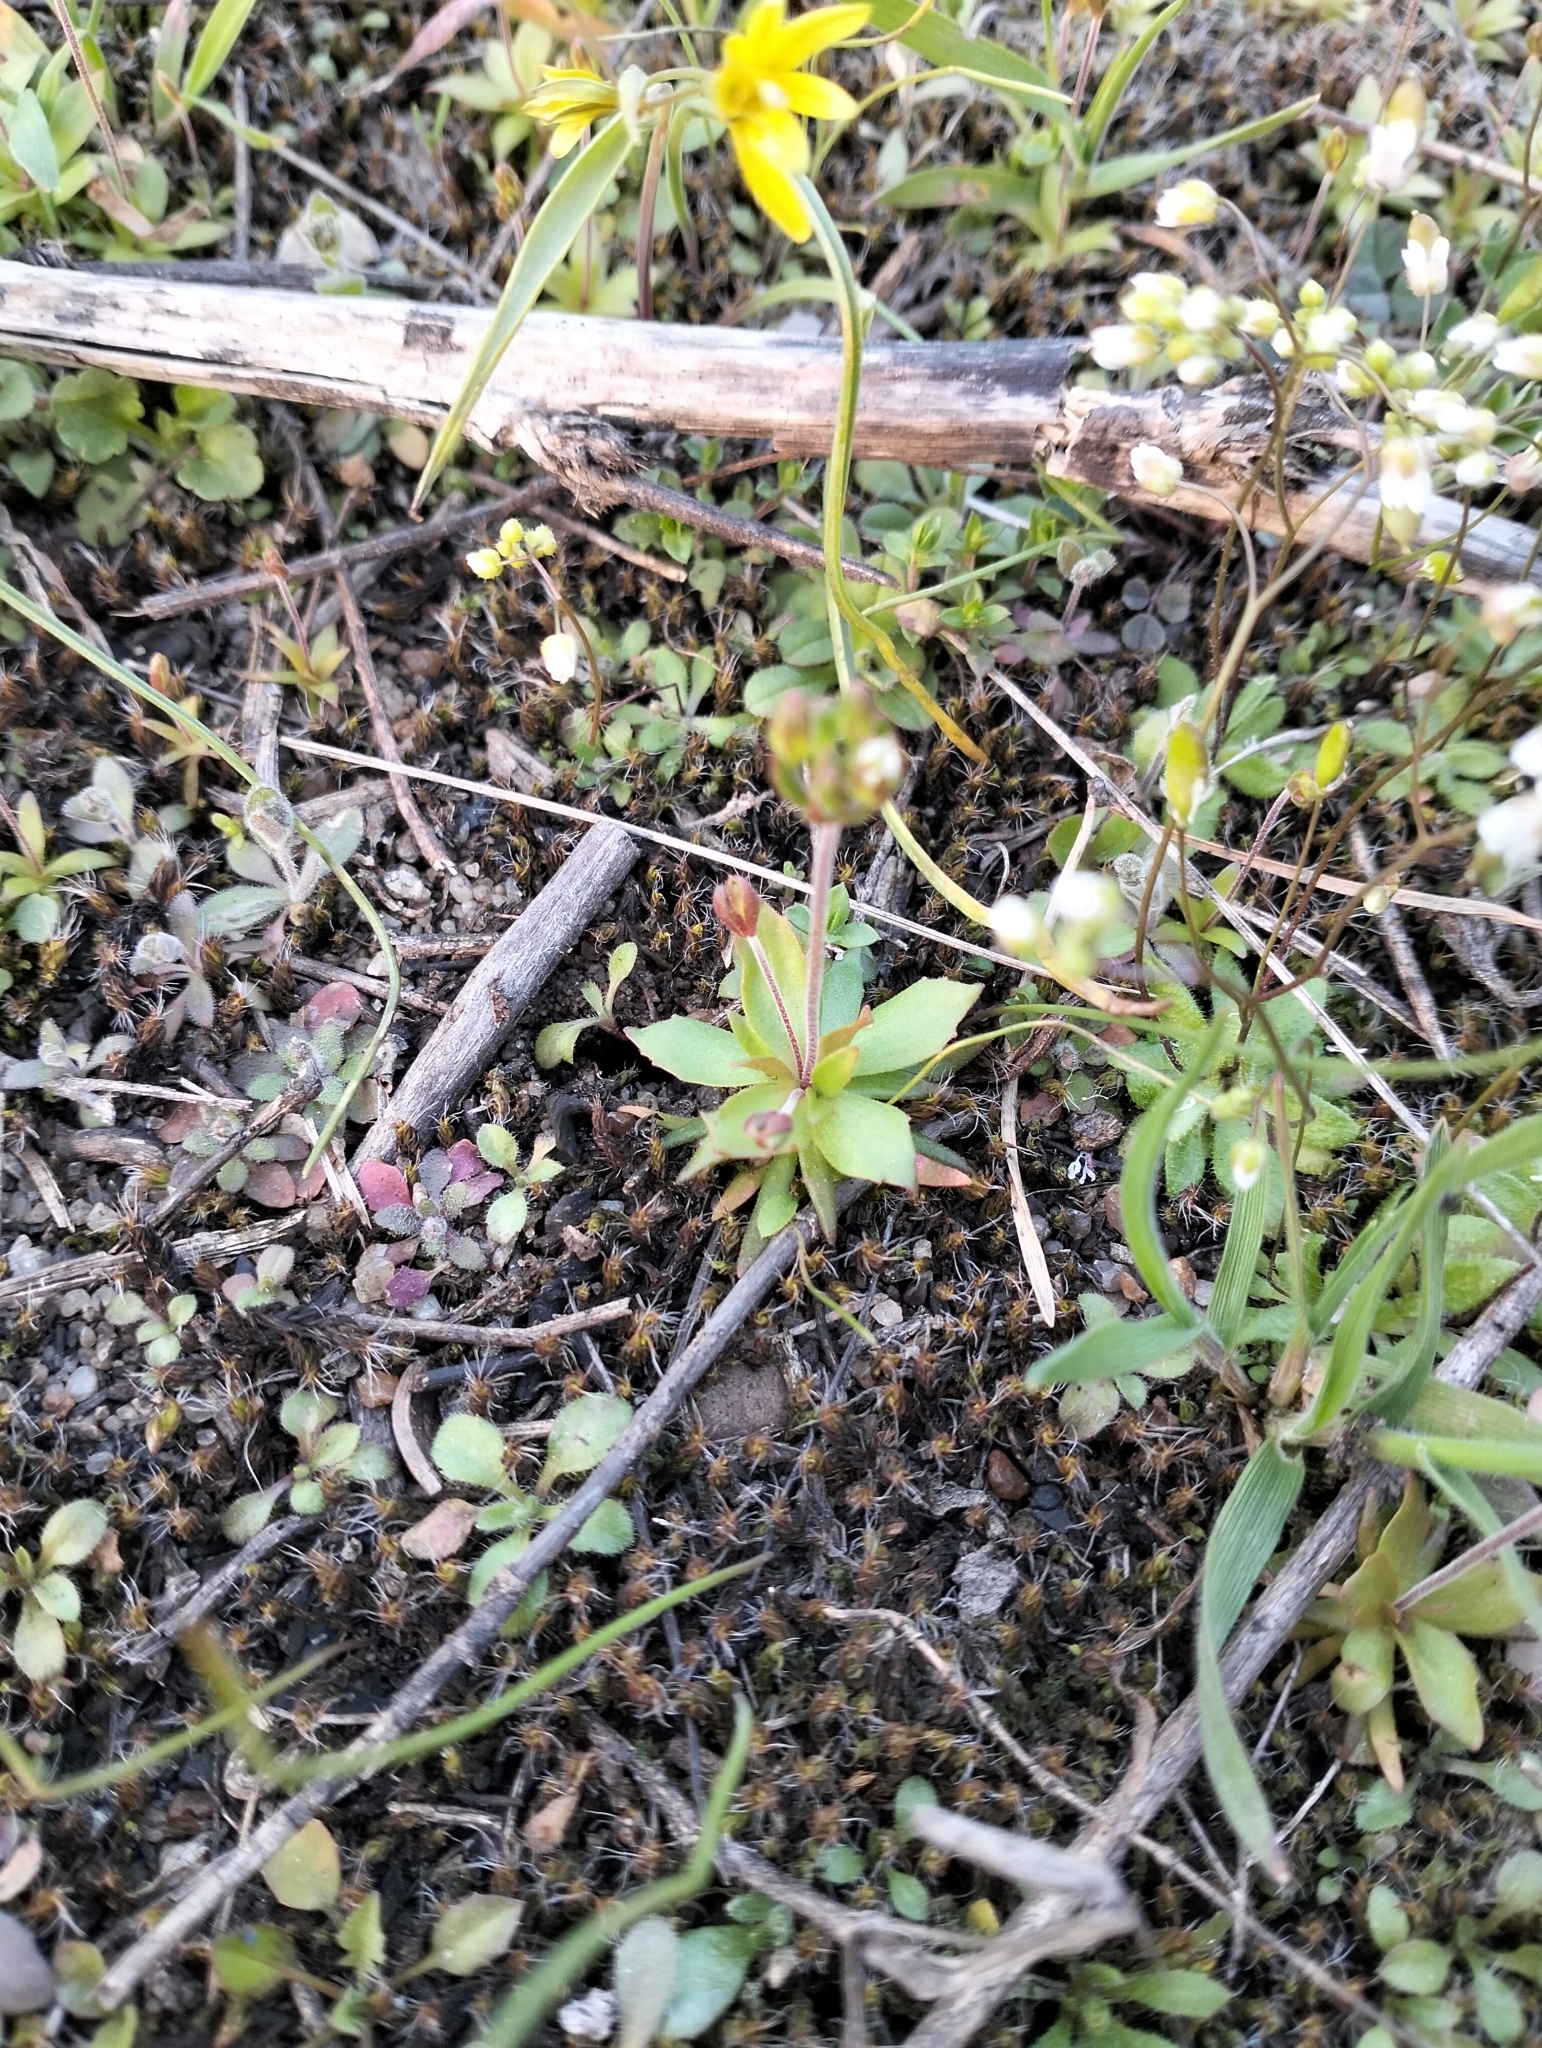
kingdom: Plantae
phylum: Tracheophyta
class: Magnoliopsida
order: Ericales
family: Primulaceae
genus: Androsace
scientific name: Androsace elongata
